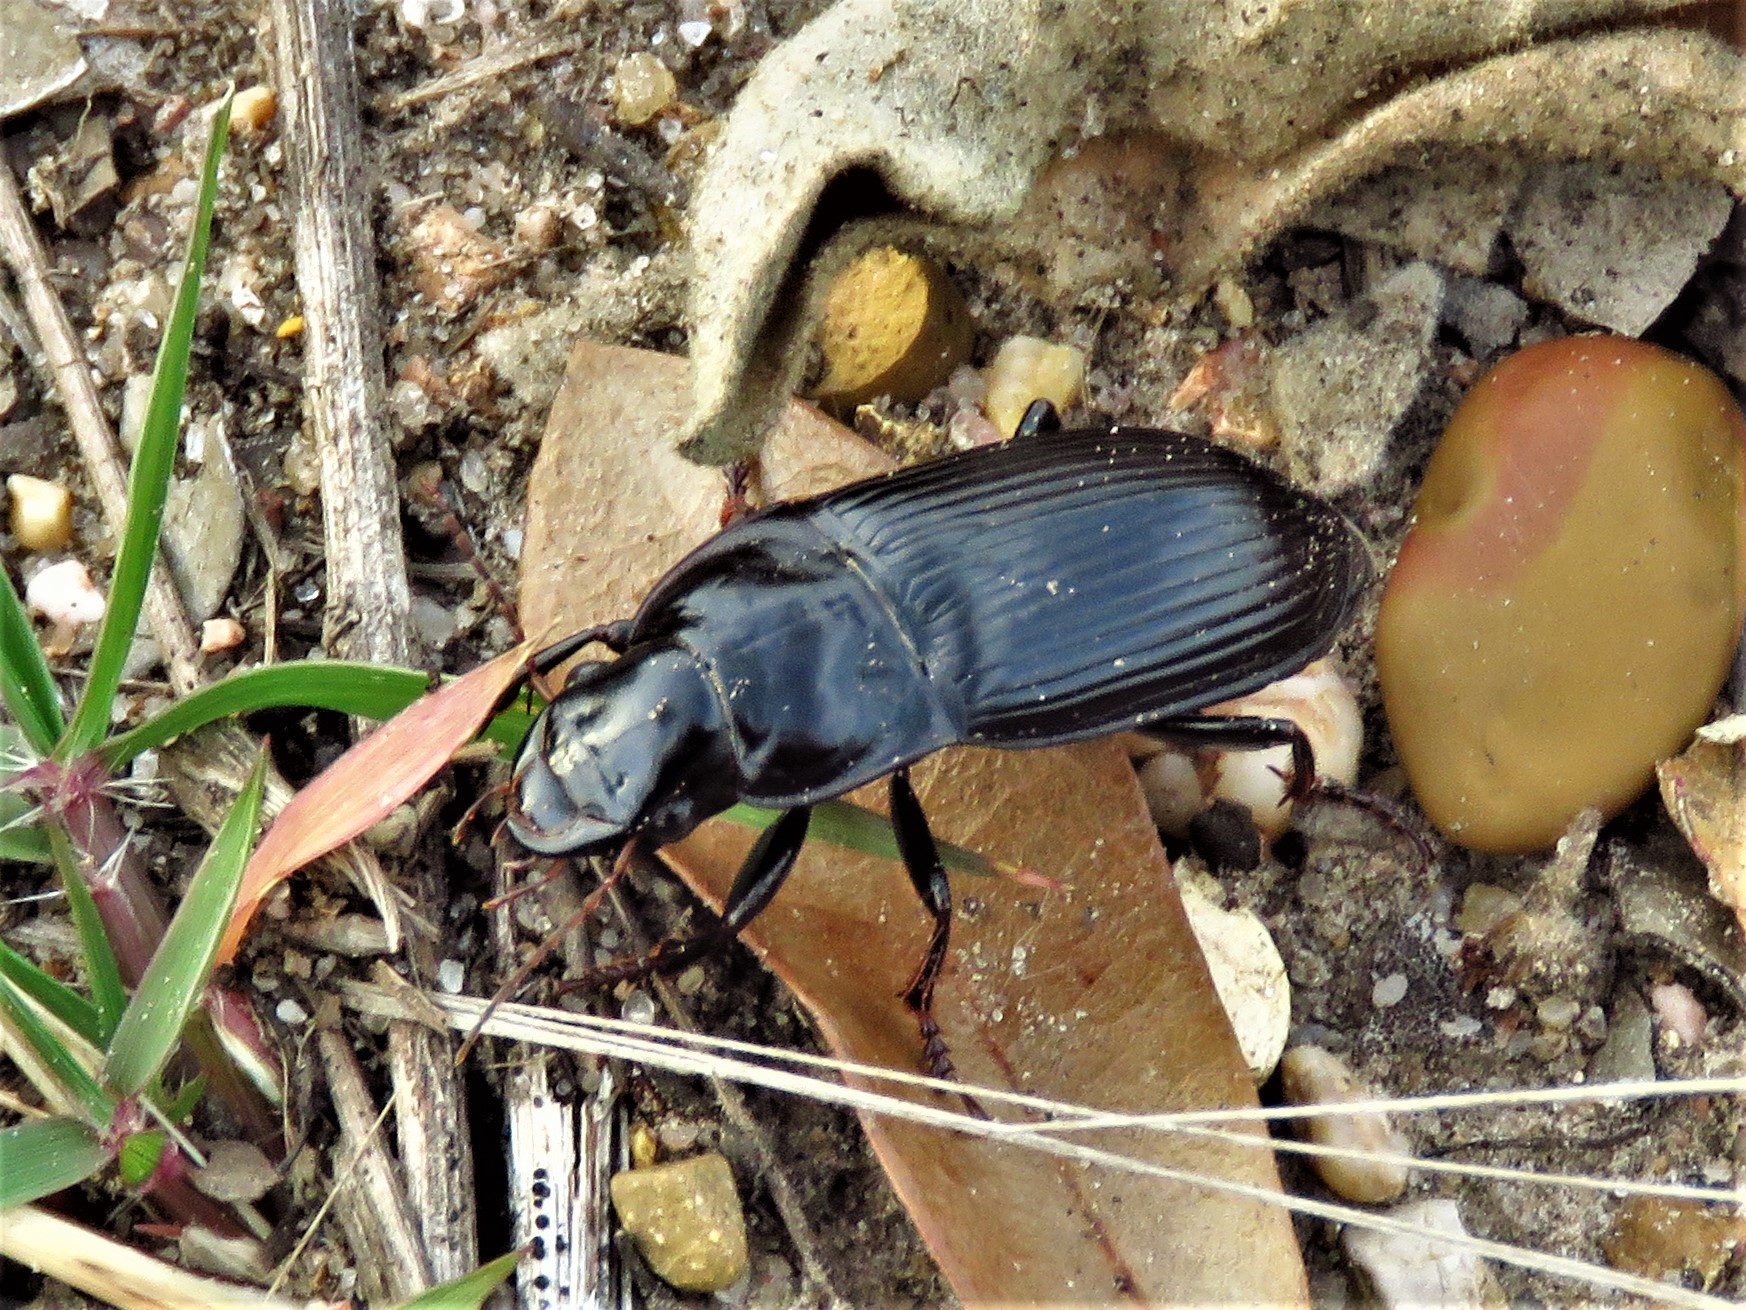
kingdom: Animalia
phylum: Arthropoda
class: Insecta
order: Coleoptera
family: Carabidae
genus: Harpalus
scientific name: Harpalus caliginosus
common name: Murky ground beetle
